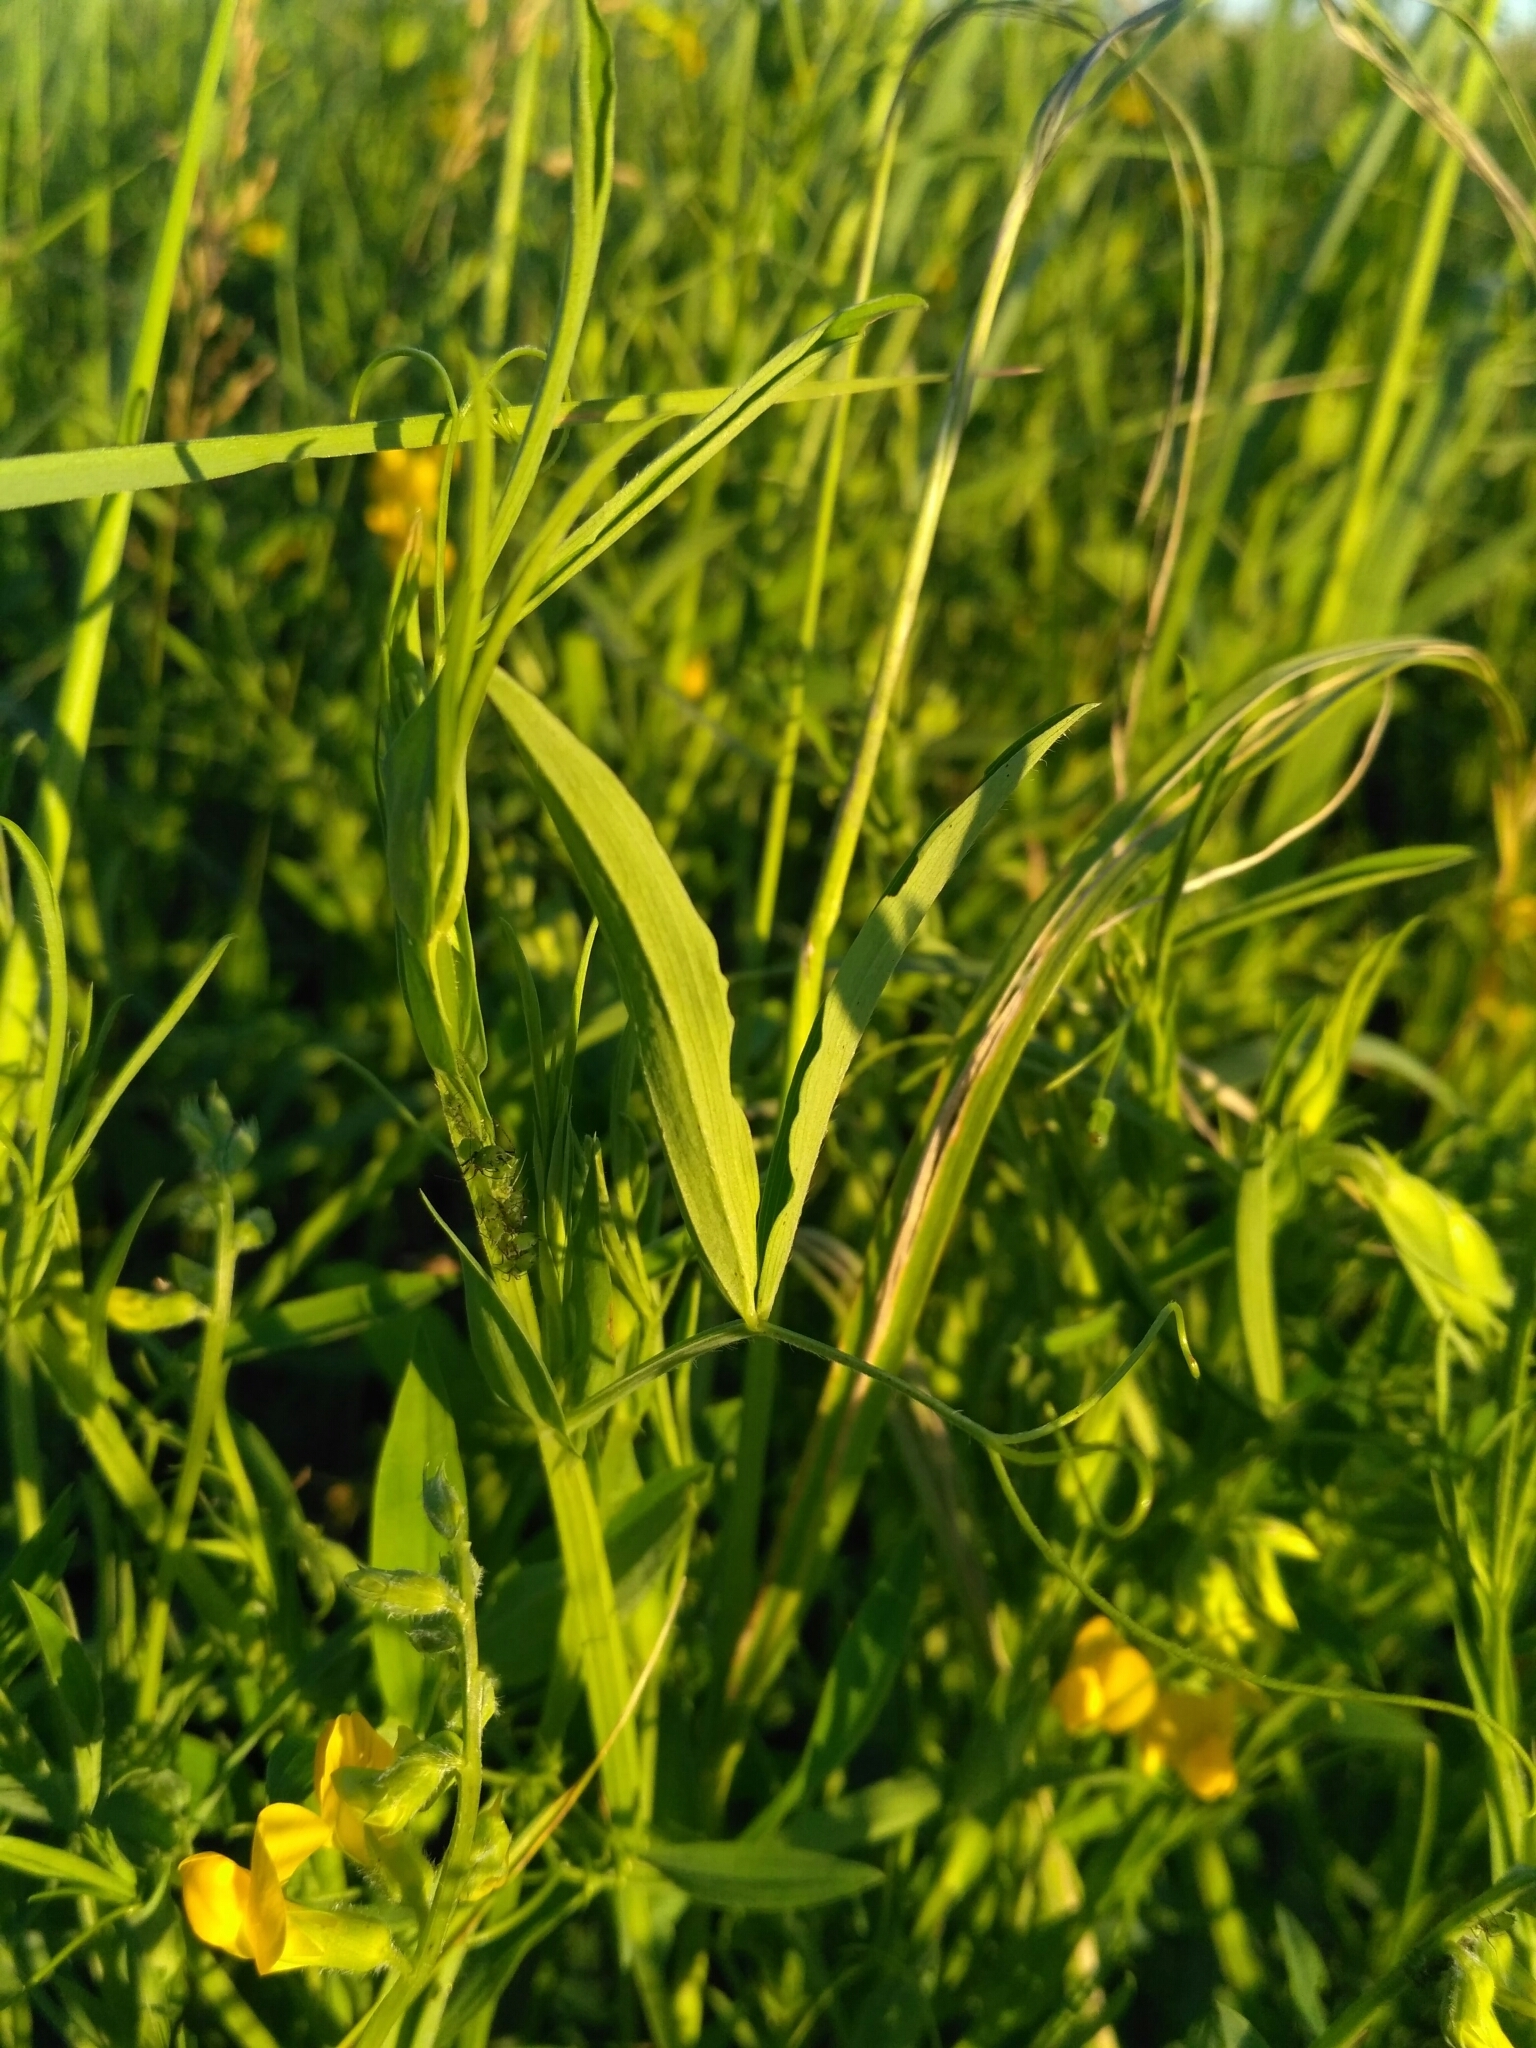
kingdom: Plantae
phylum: Tracheophyta
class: Magnoliopsida
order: Fabales
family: Fabaceae
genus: Lathyrus
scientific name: Lathyrus pratensis
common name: Meadow vetchling
